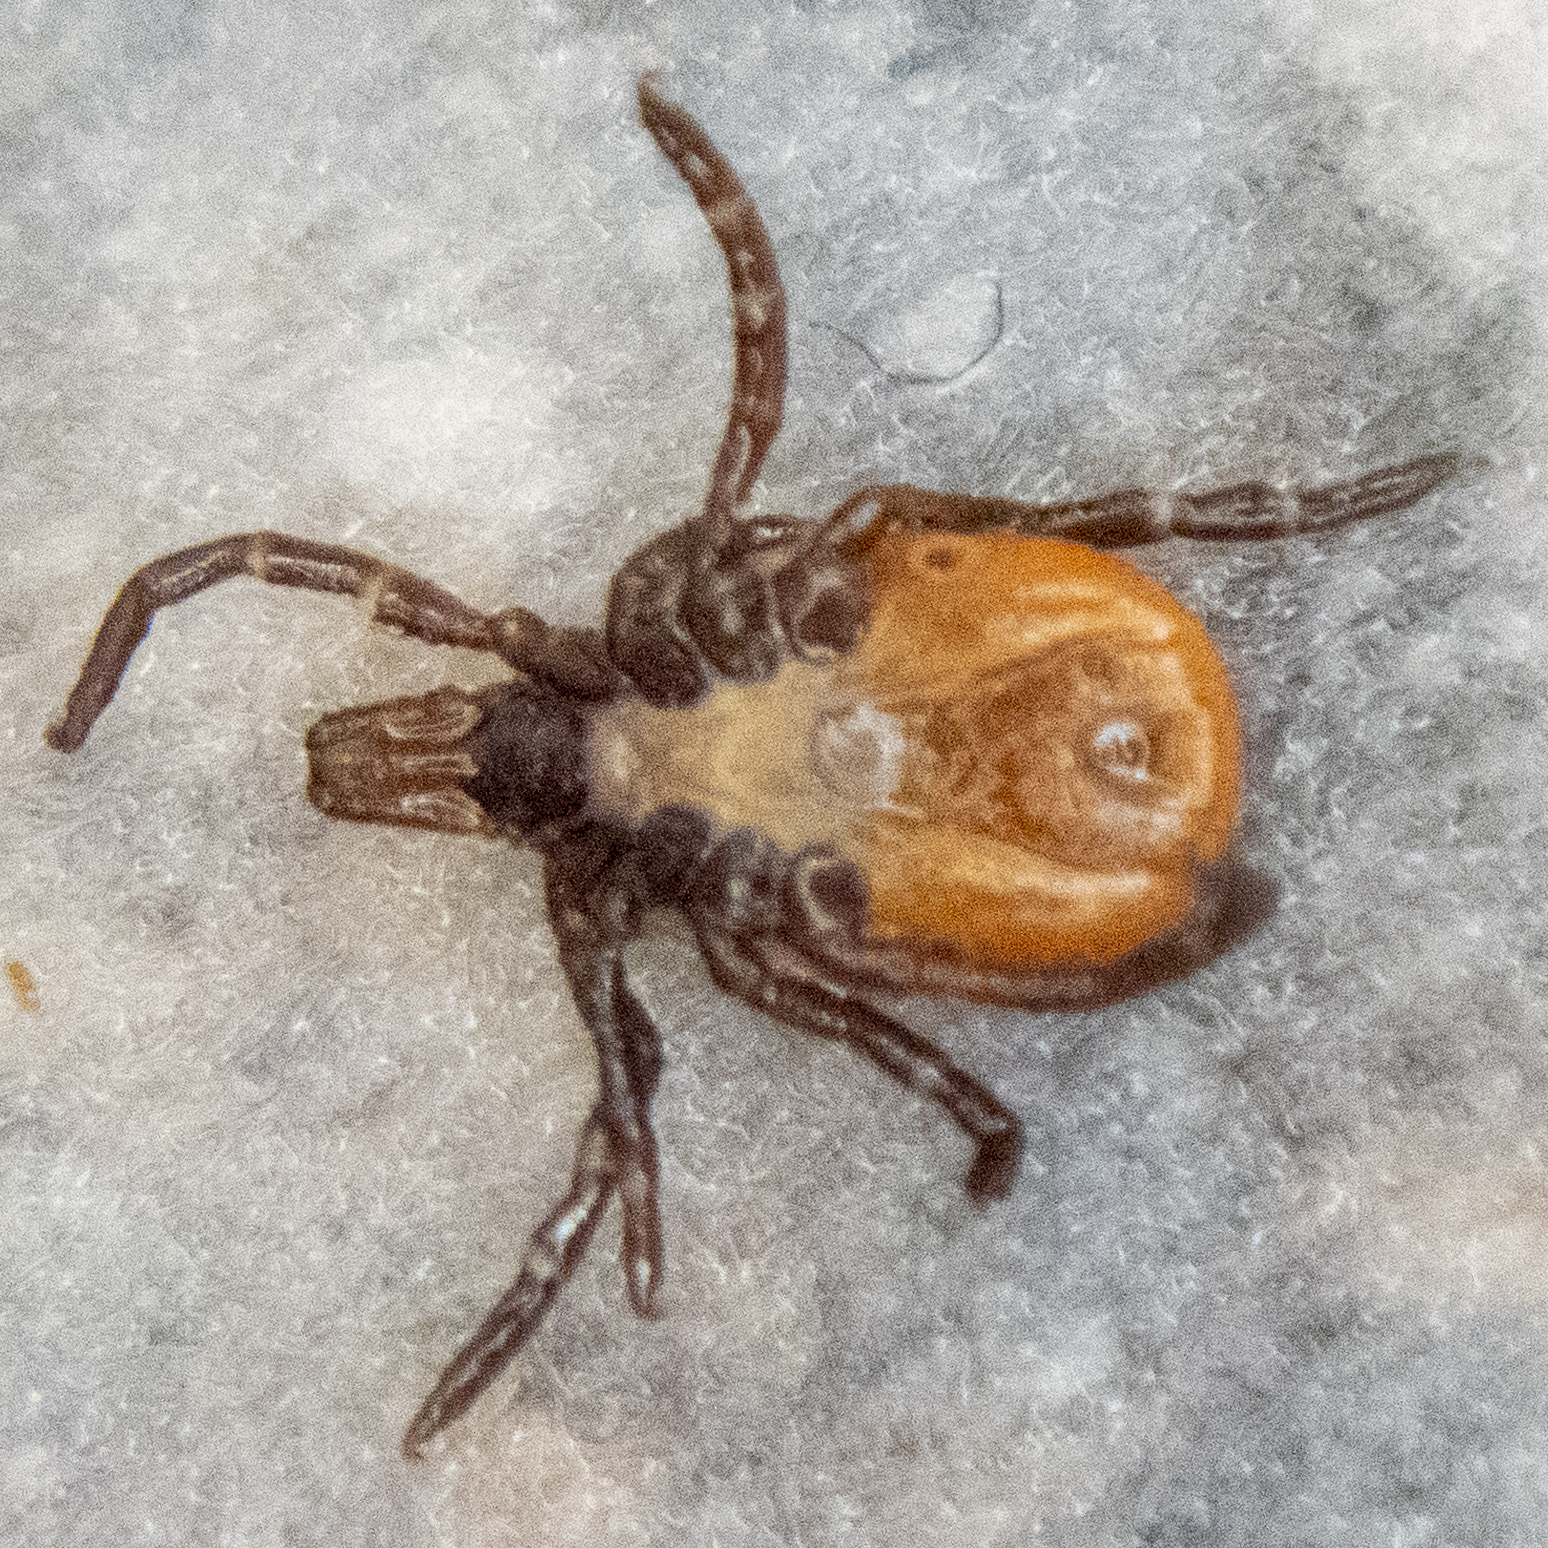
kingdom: Animalia
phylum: Arthropoda
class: Arachnida
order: Ixodida
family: Ixodidae
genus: Ixodes
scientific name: Ixodes scapularis
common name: Black legged tick
